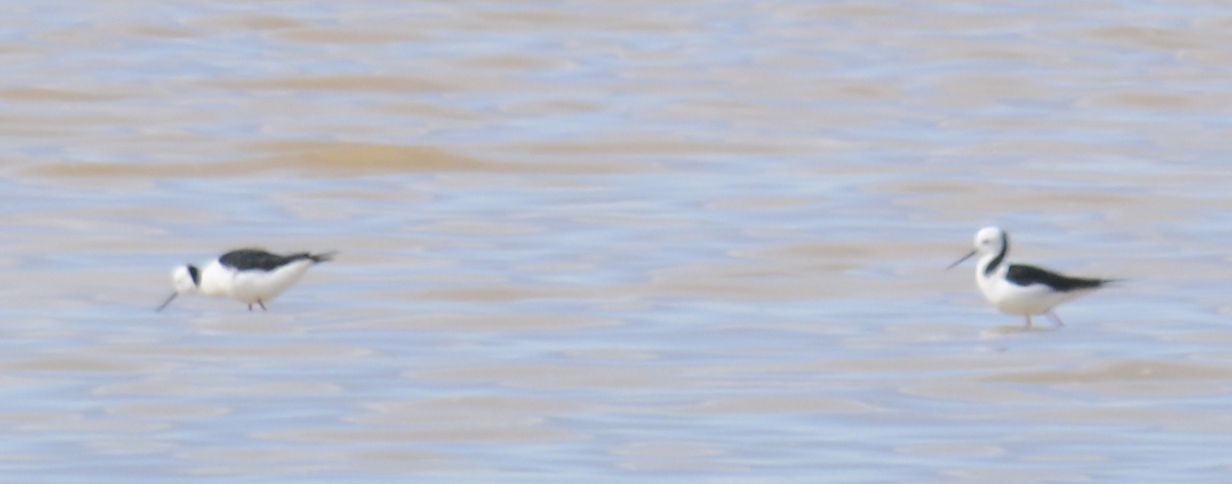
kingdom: Animalia
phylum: Chordata
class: Aves
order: Charadriiformes
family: Recurvirostridae
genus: Himantopus
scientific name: Himantopus leucocephalus
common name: White-headed stilt
